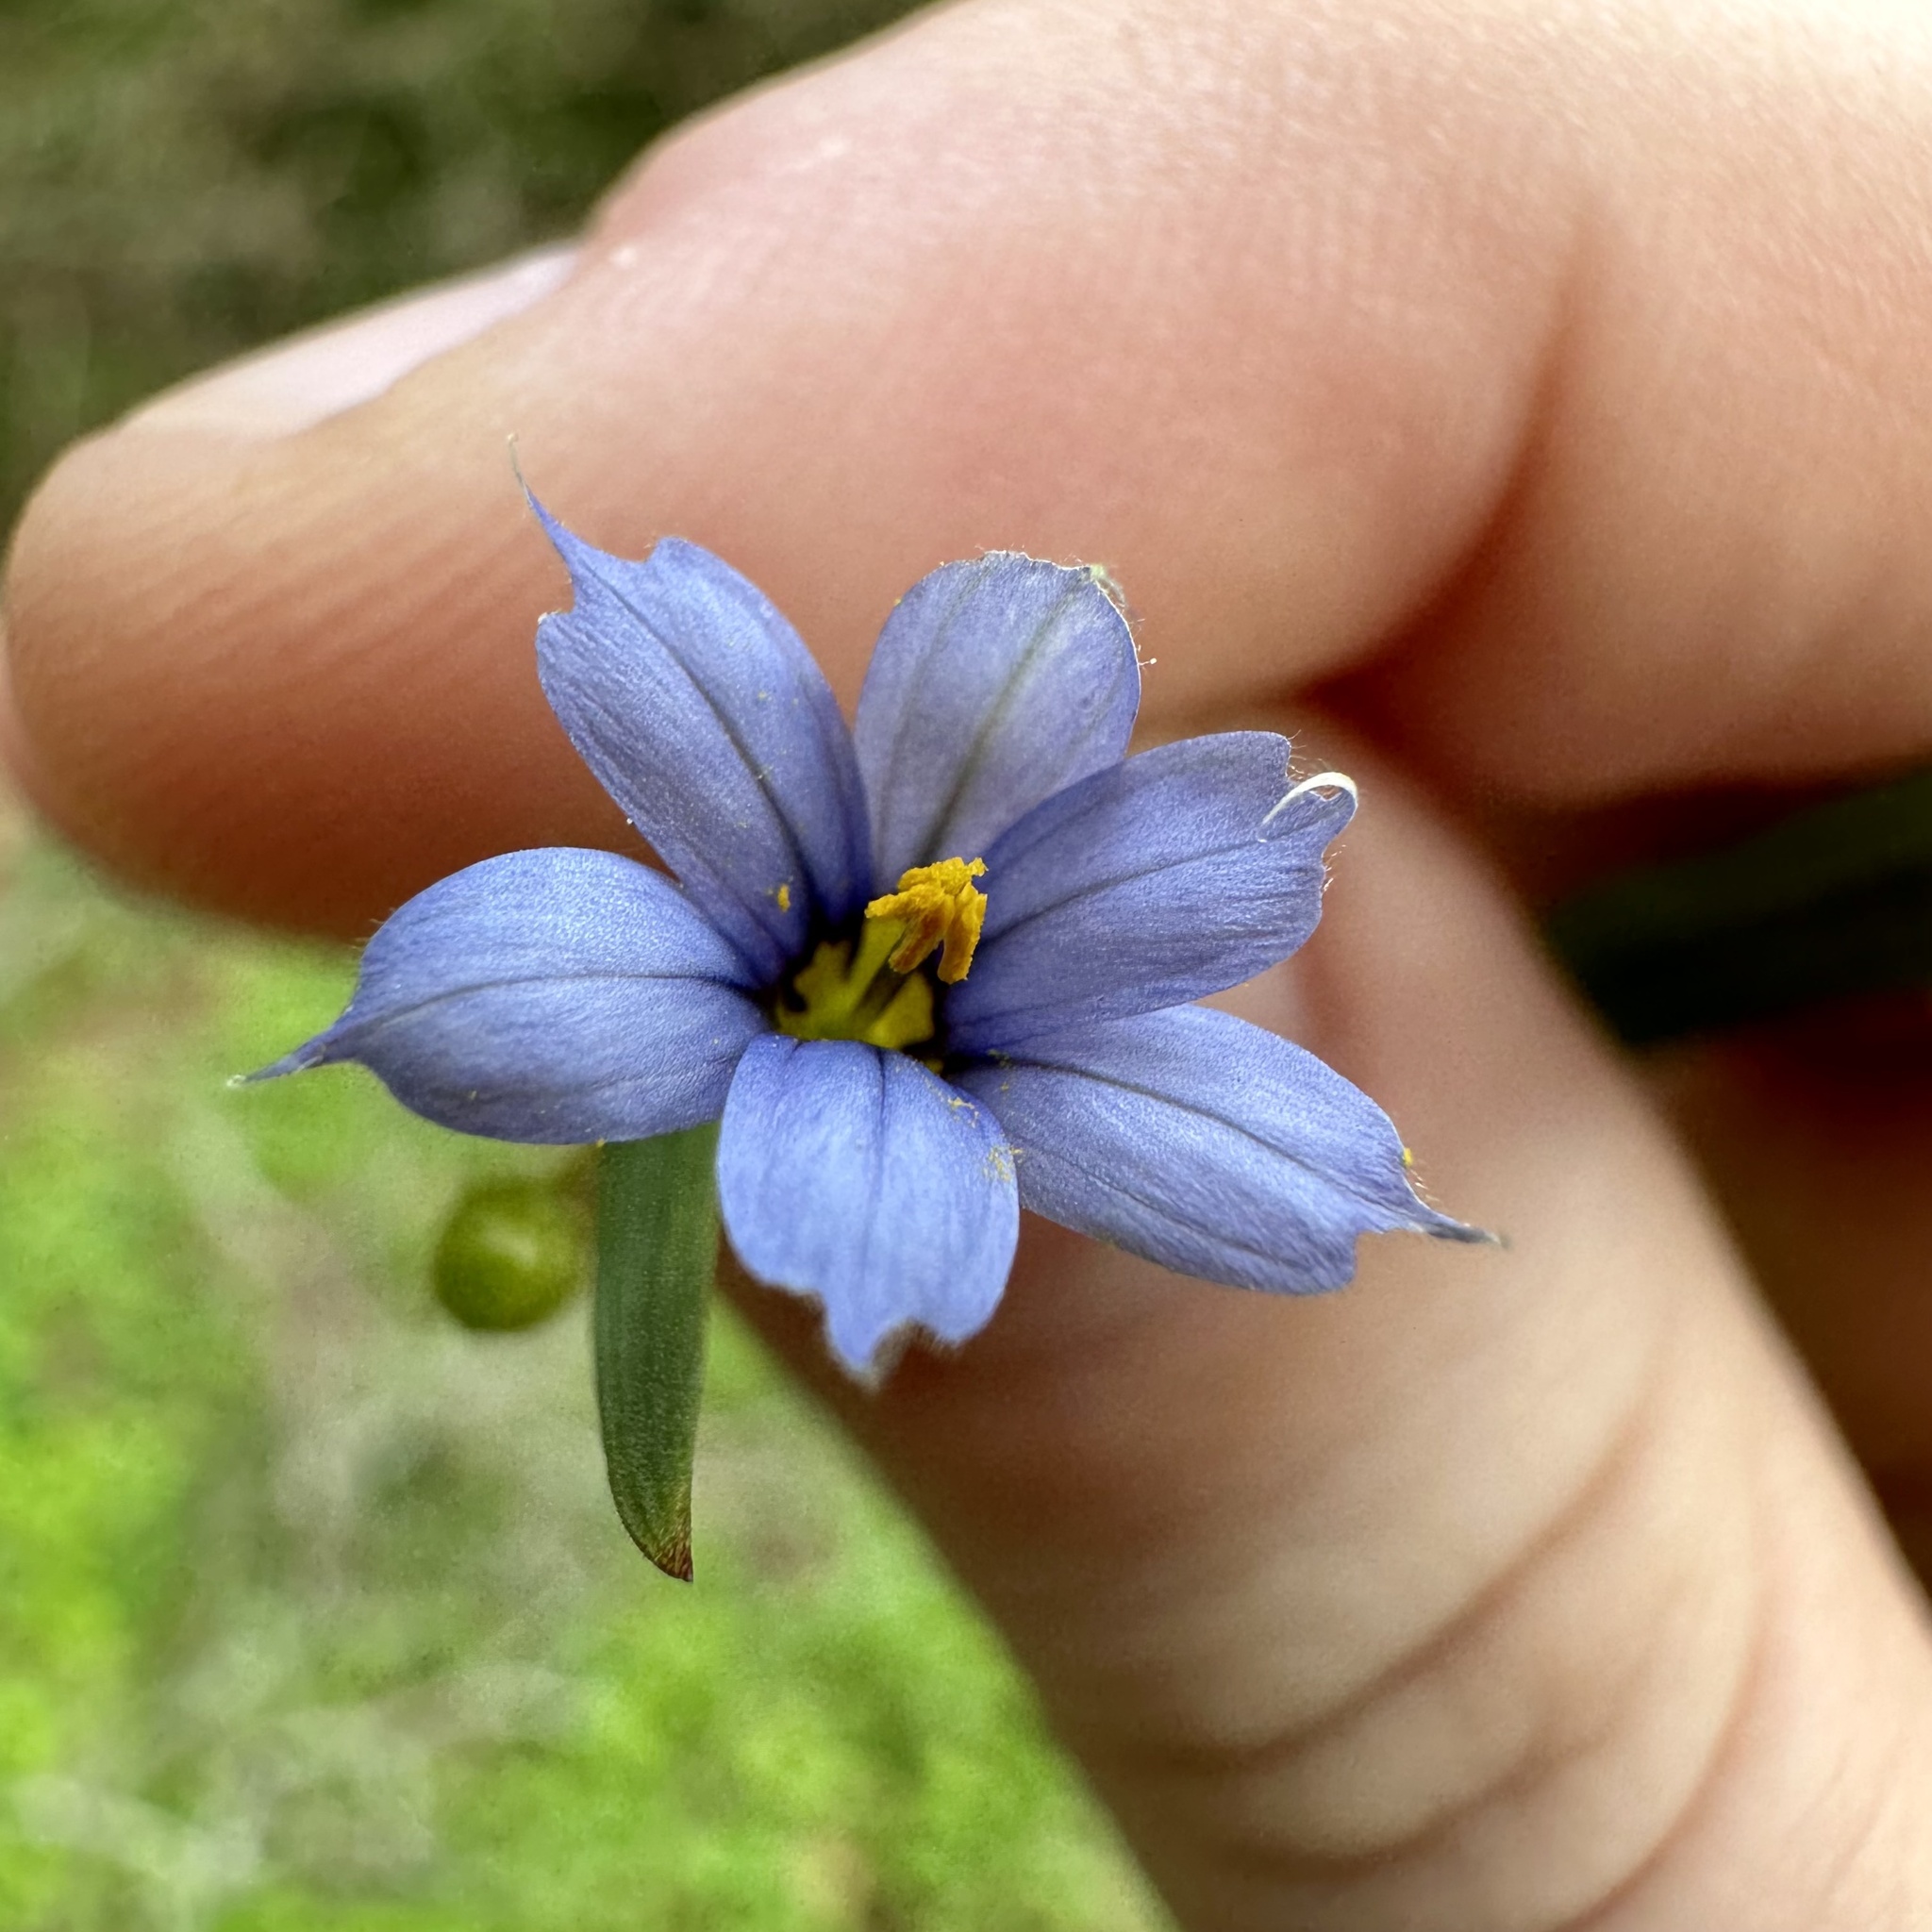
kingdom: Plantae
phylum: Tracheophyta
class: Liliopsida
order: Asparagales
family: Iridaceae
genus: Sisyrinchium
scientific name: Sisyrinchium angustifolium
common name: Narrow-leaf blue-eyed-grass
